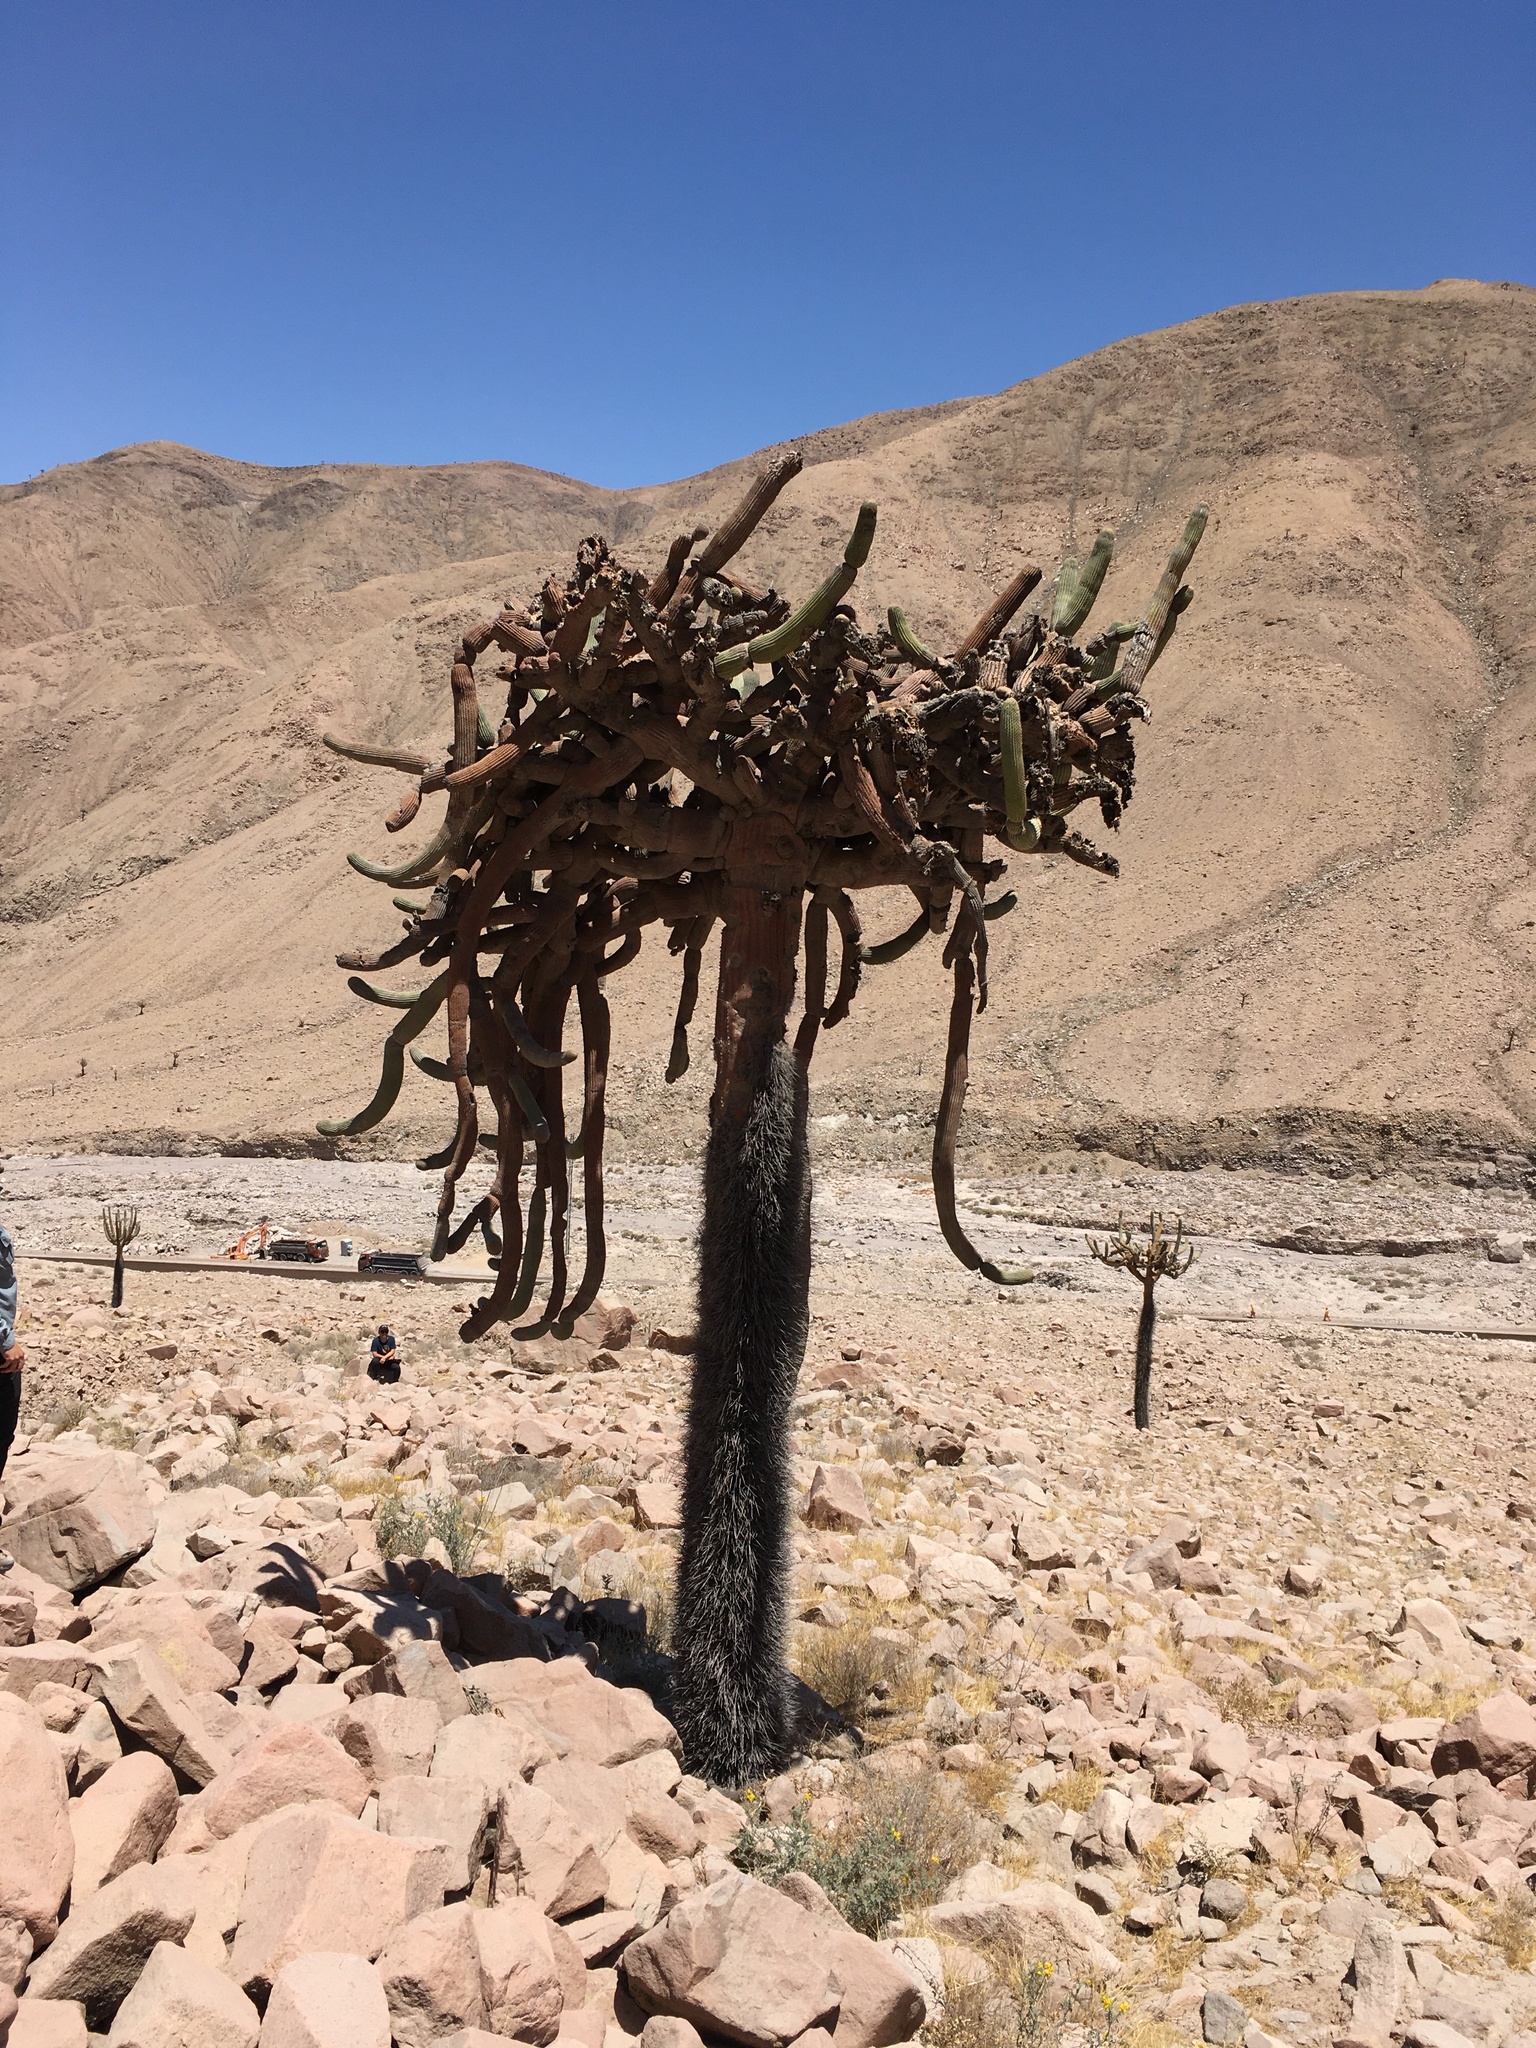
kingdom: Plantae
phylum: Tracheophyta
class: Magnoliopsida
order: Caryophyllales
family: Cactaceae
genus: Browningia
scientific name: Browningia candelaris
